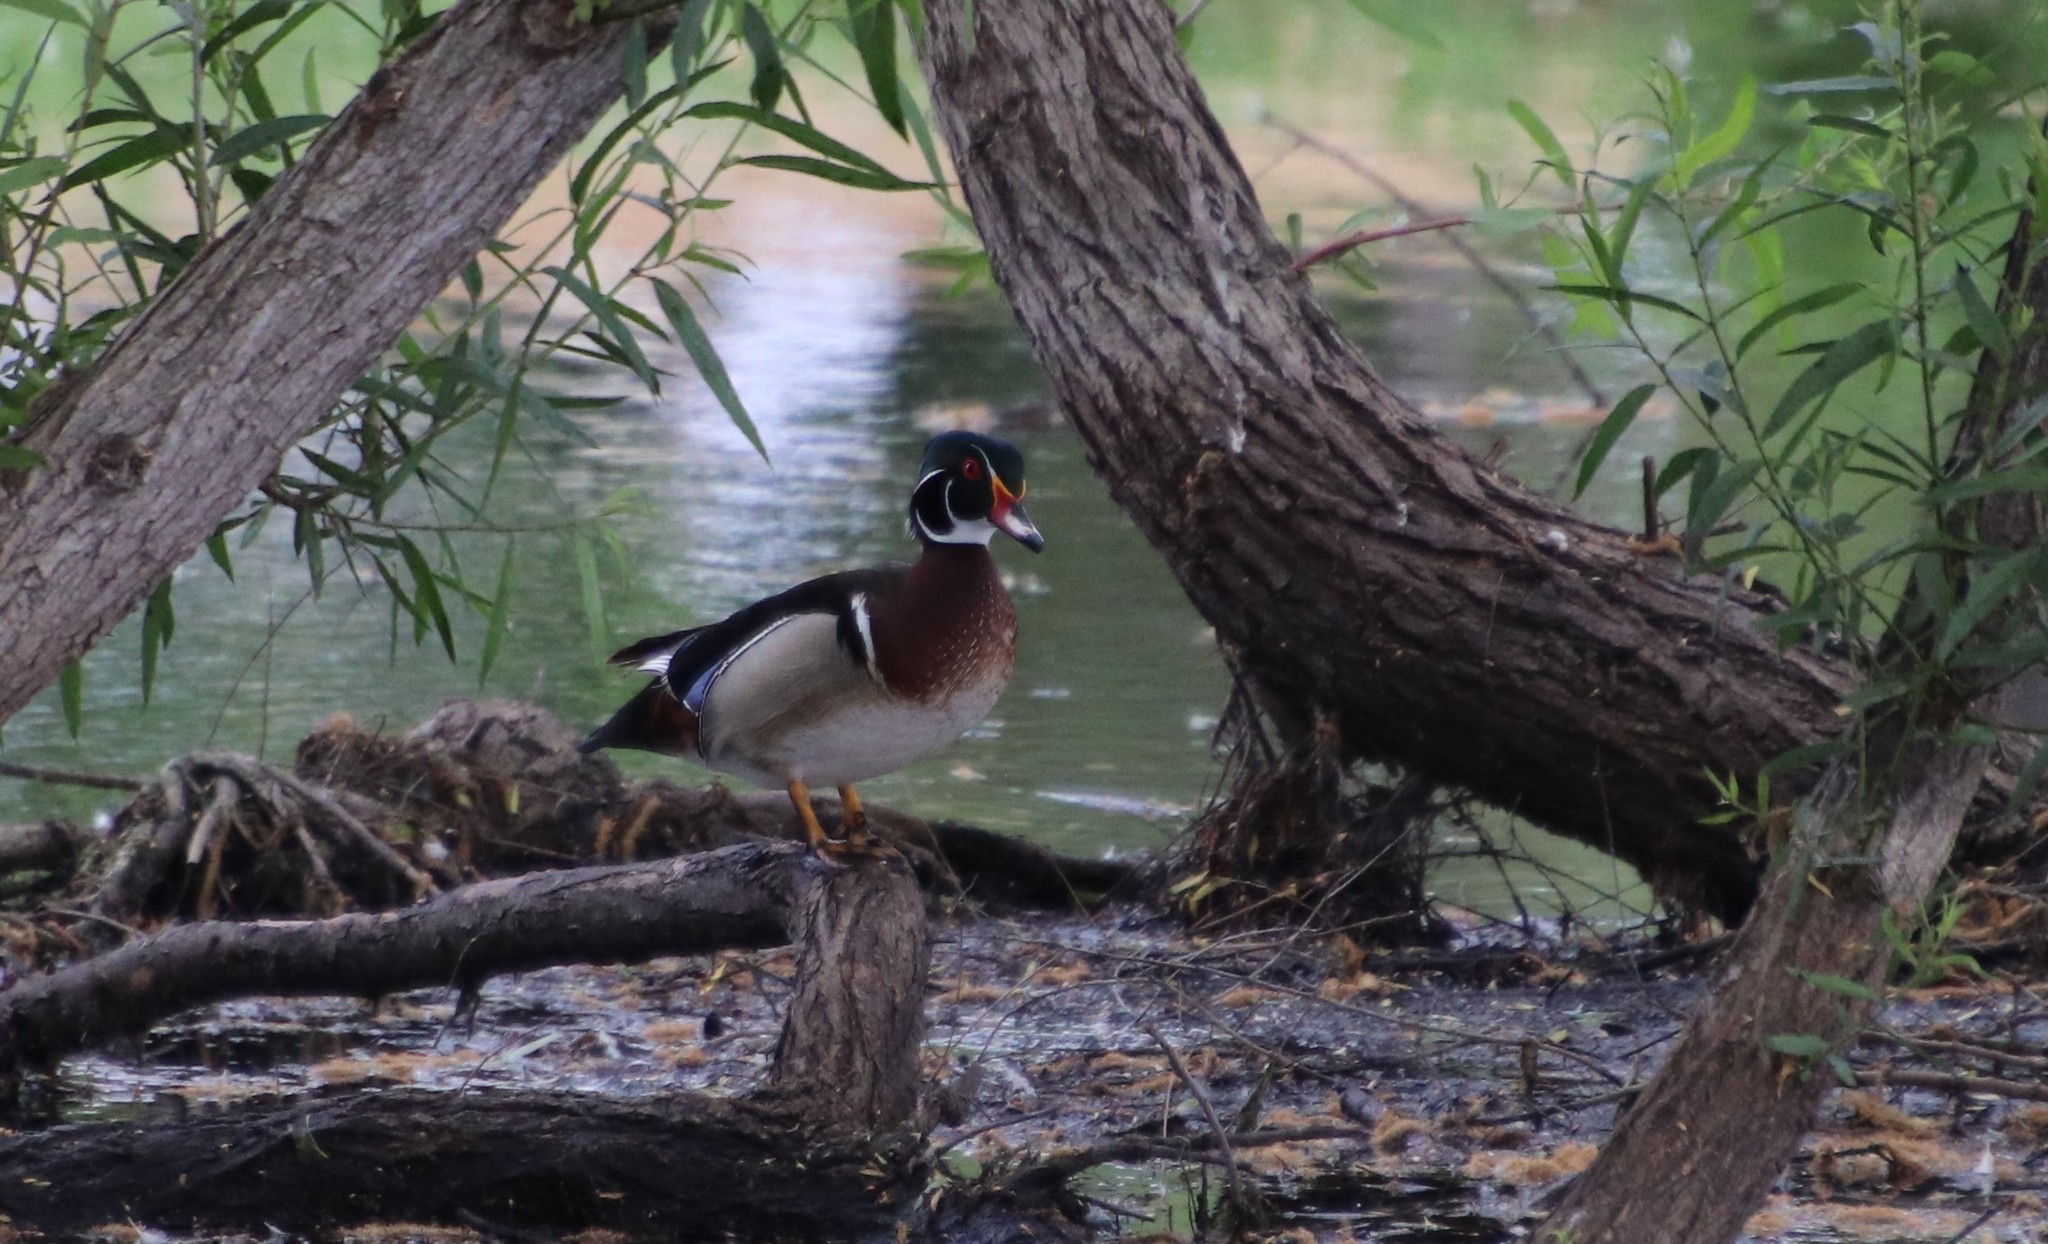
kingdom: Animalia
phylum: Chordata
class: Aves
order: Anseriformes
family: Anatidae
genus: Aix
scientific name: Aix sponsa
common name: Wood duck
